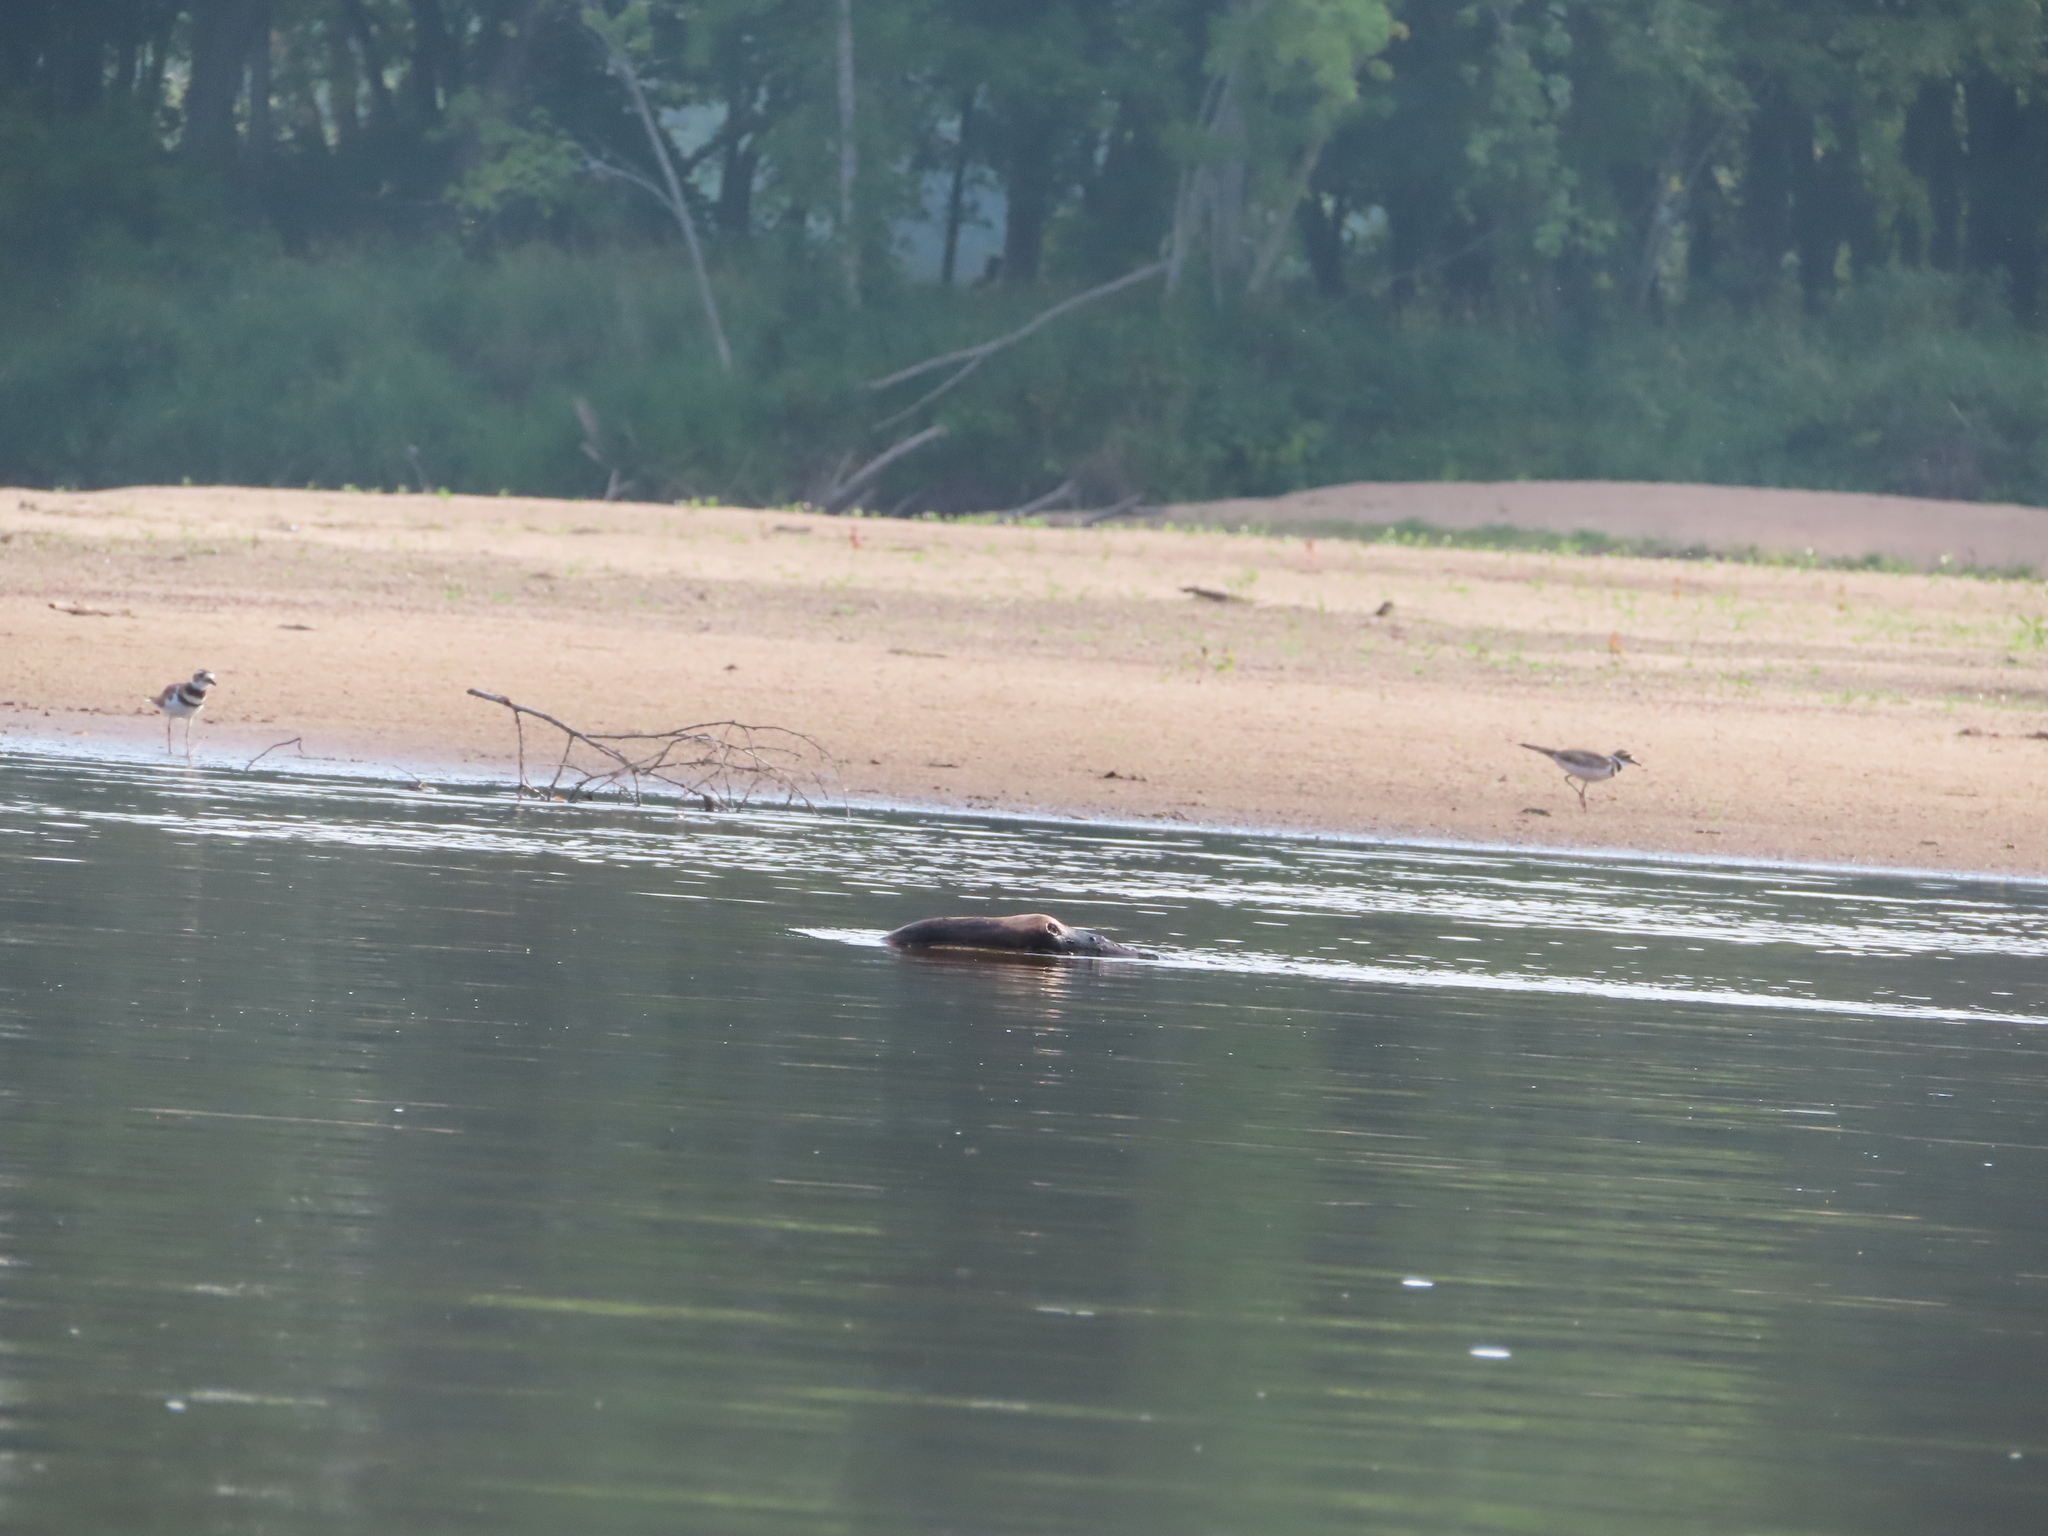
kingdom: Animalia
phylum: Chordata
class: Aves
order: Charadriiformes
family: Charadriidae
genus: Charadrius
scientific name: Charadrius vociferus
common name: Killdeer
